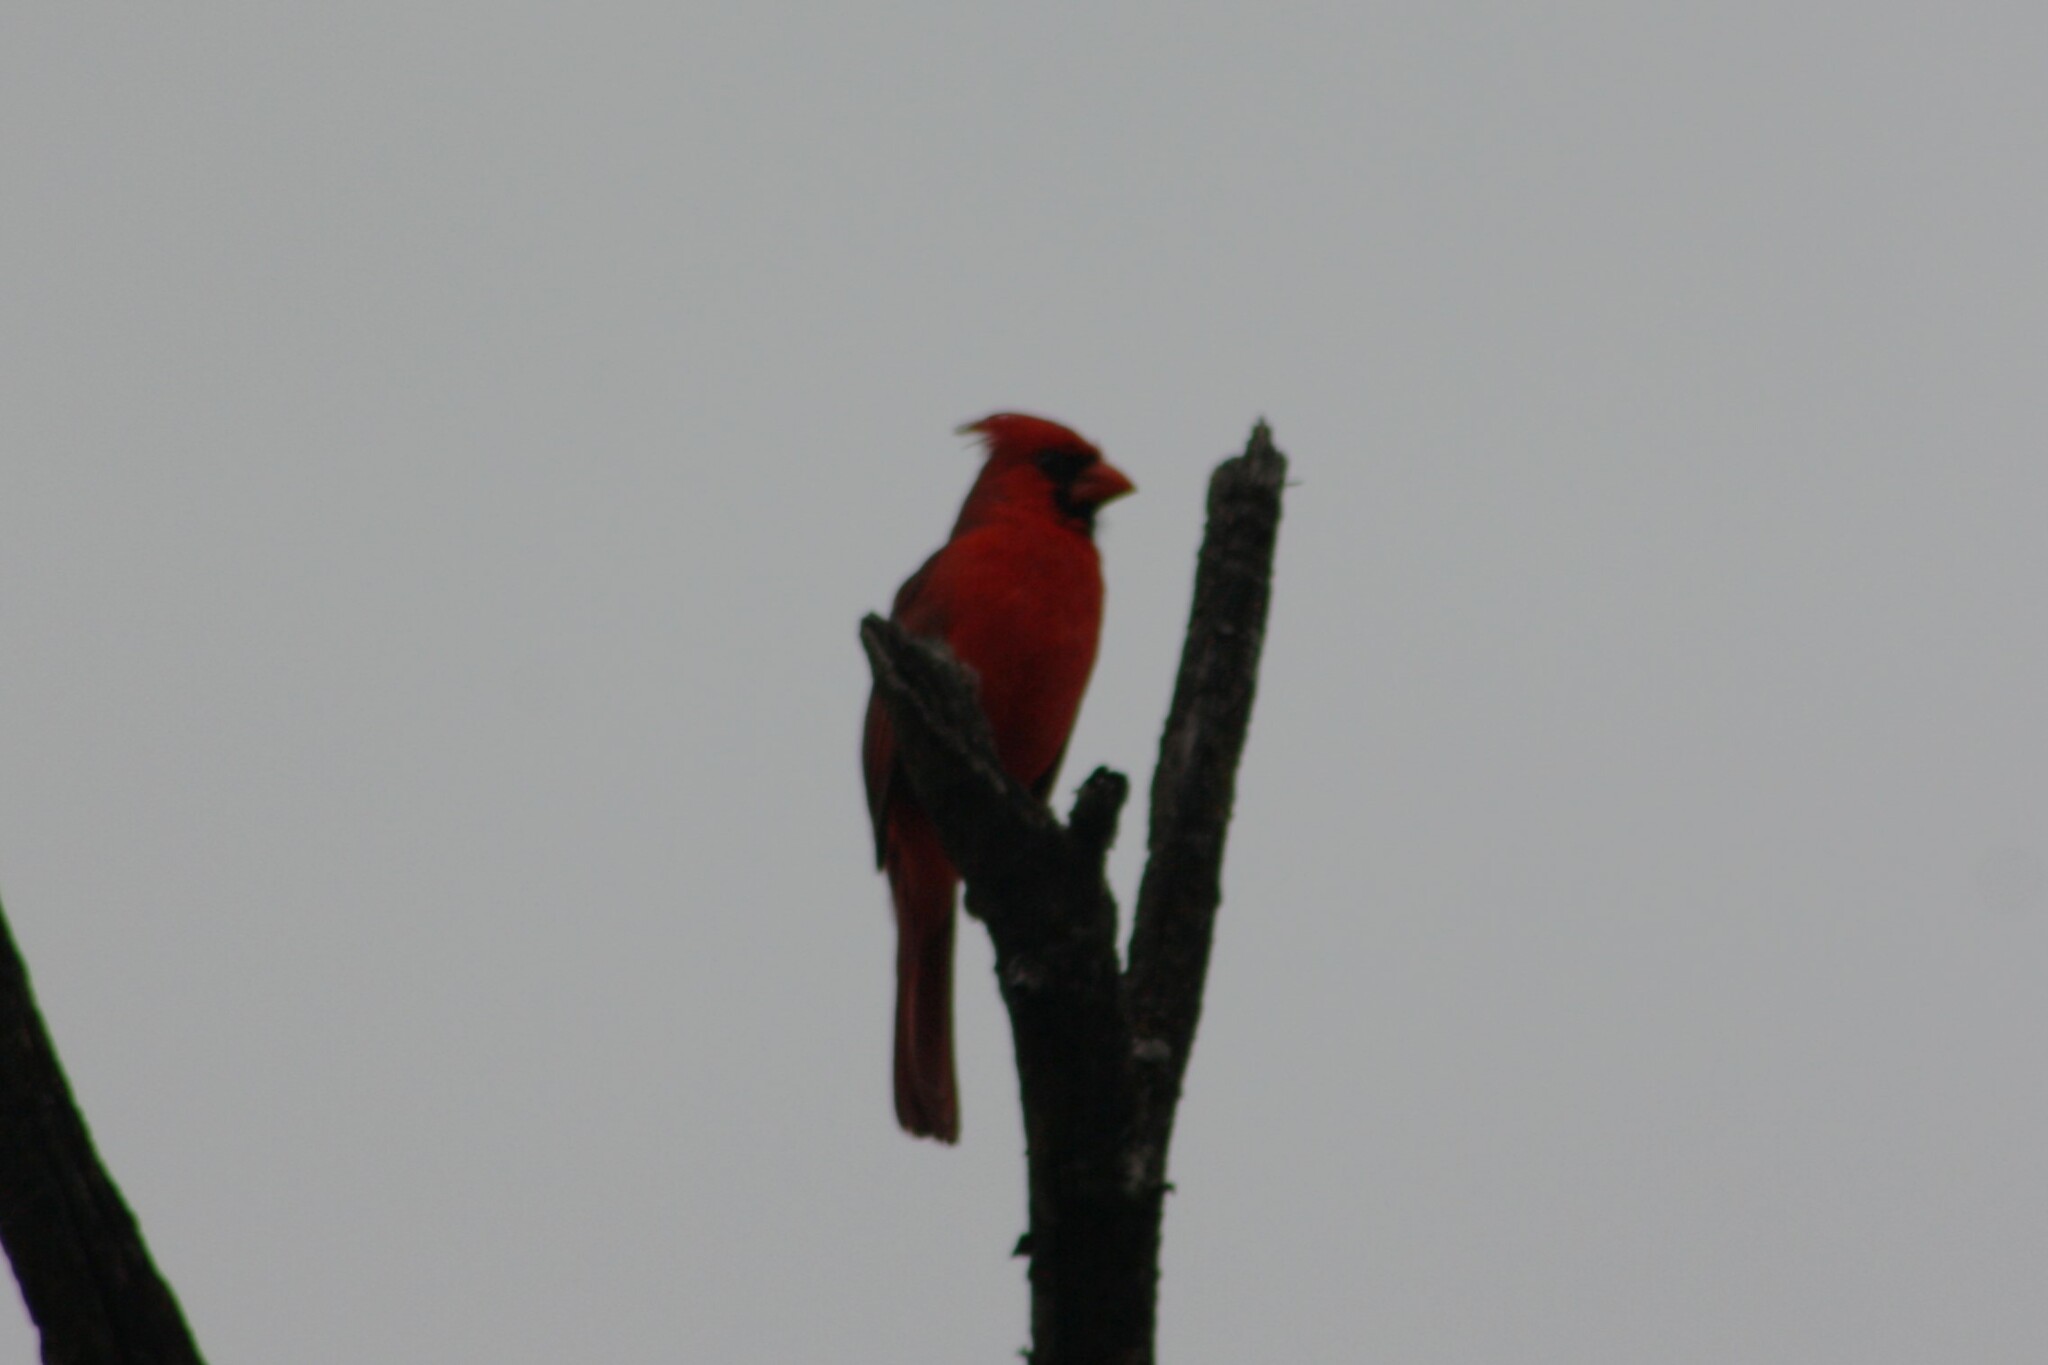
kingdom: Animalia
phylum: Chordata
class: Aves
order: Passeriformes
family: Cardinalidae
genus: Cardinalis
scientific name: Cardinalis cardinalis
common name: Northern cardinal
